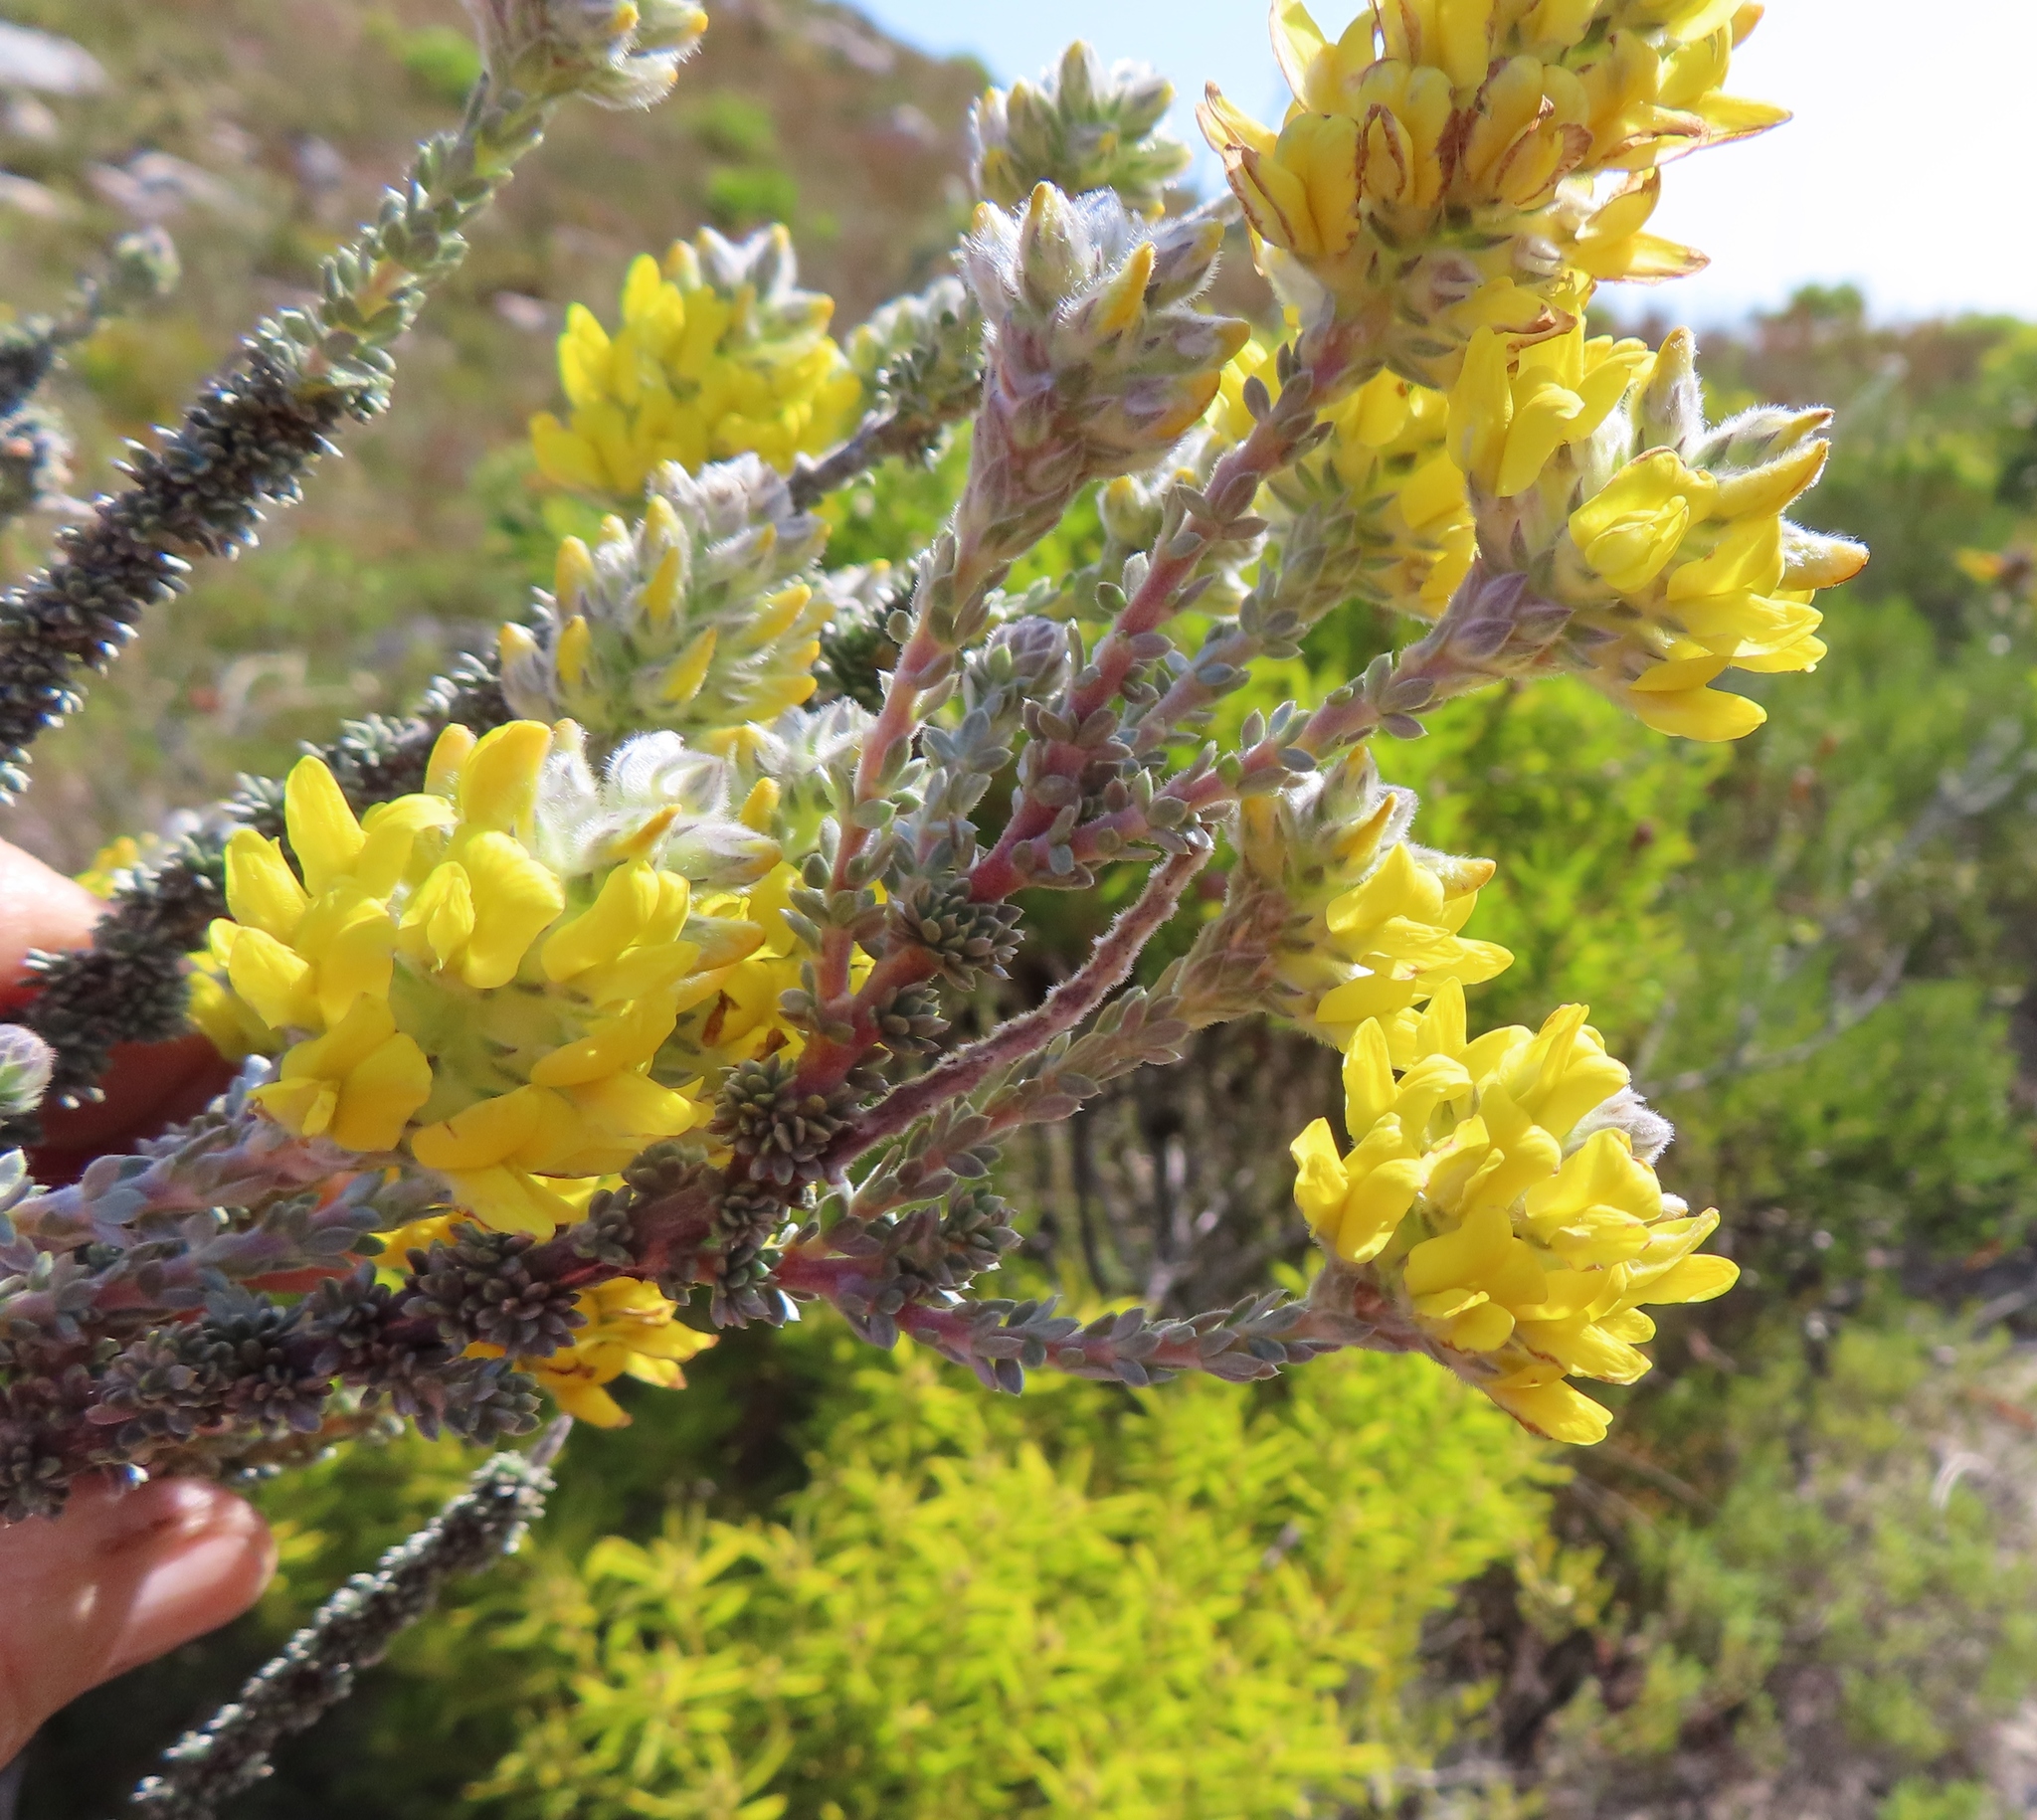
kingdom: Plantae
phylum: Tracheophyta
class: Magnoliopsida
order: Fabales
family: Fabaceae
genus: Aspalathus
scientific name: Aspalathus quinquefolia
